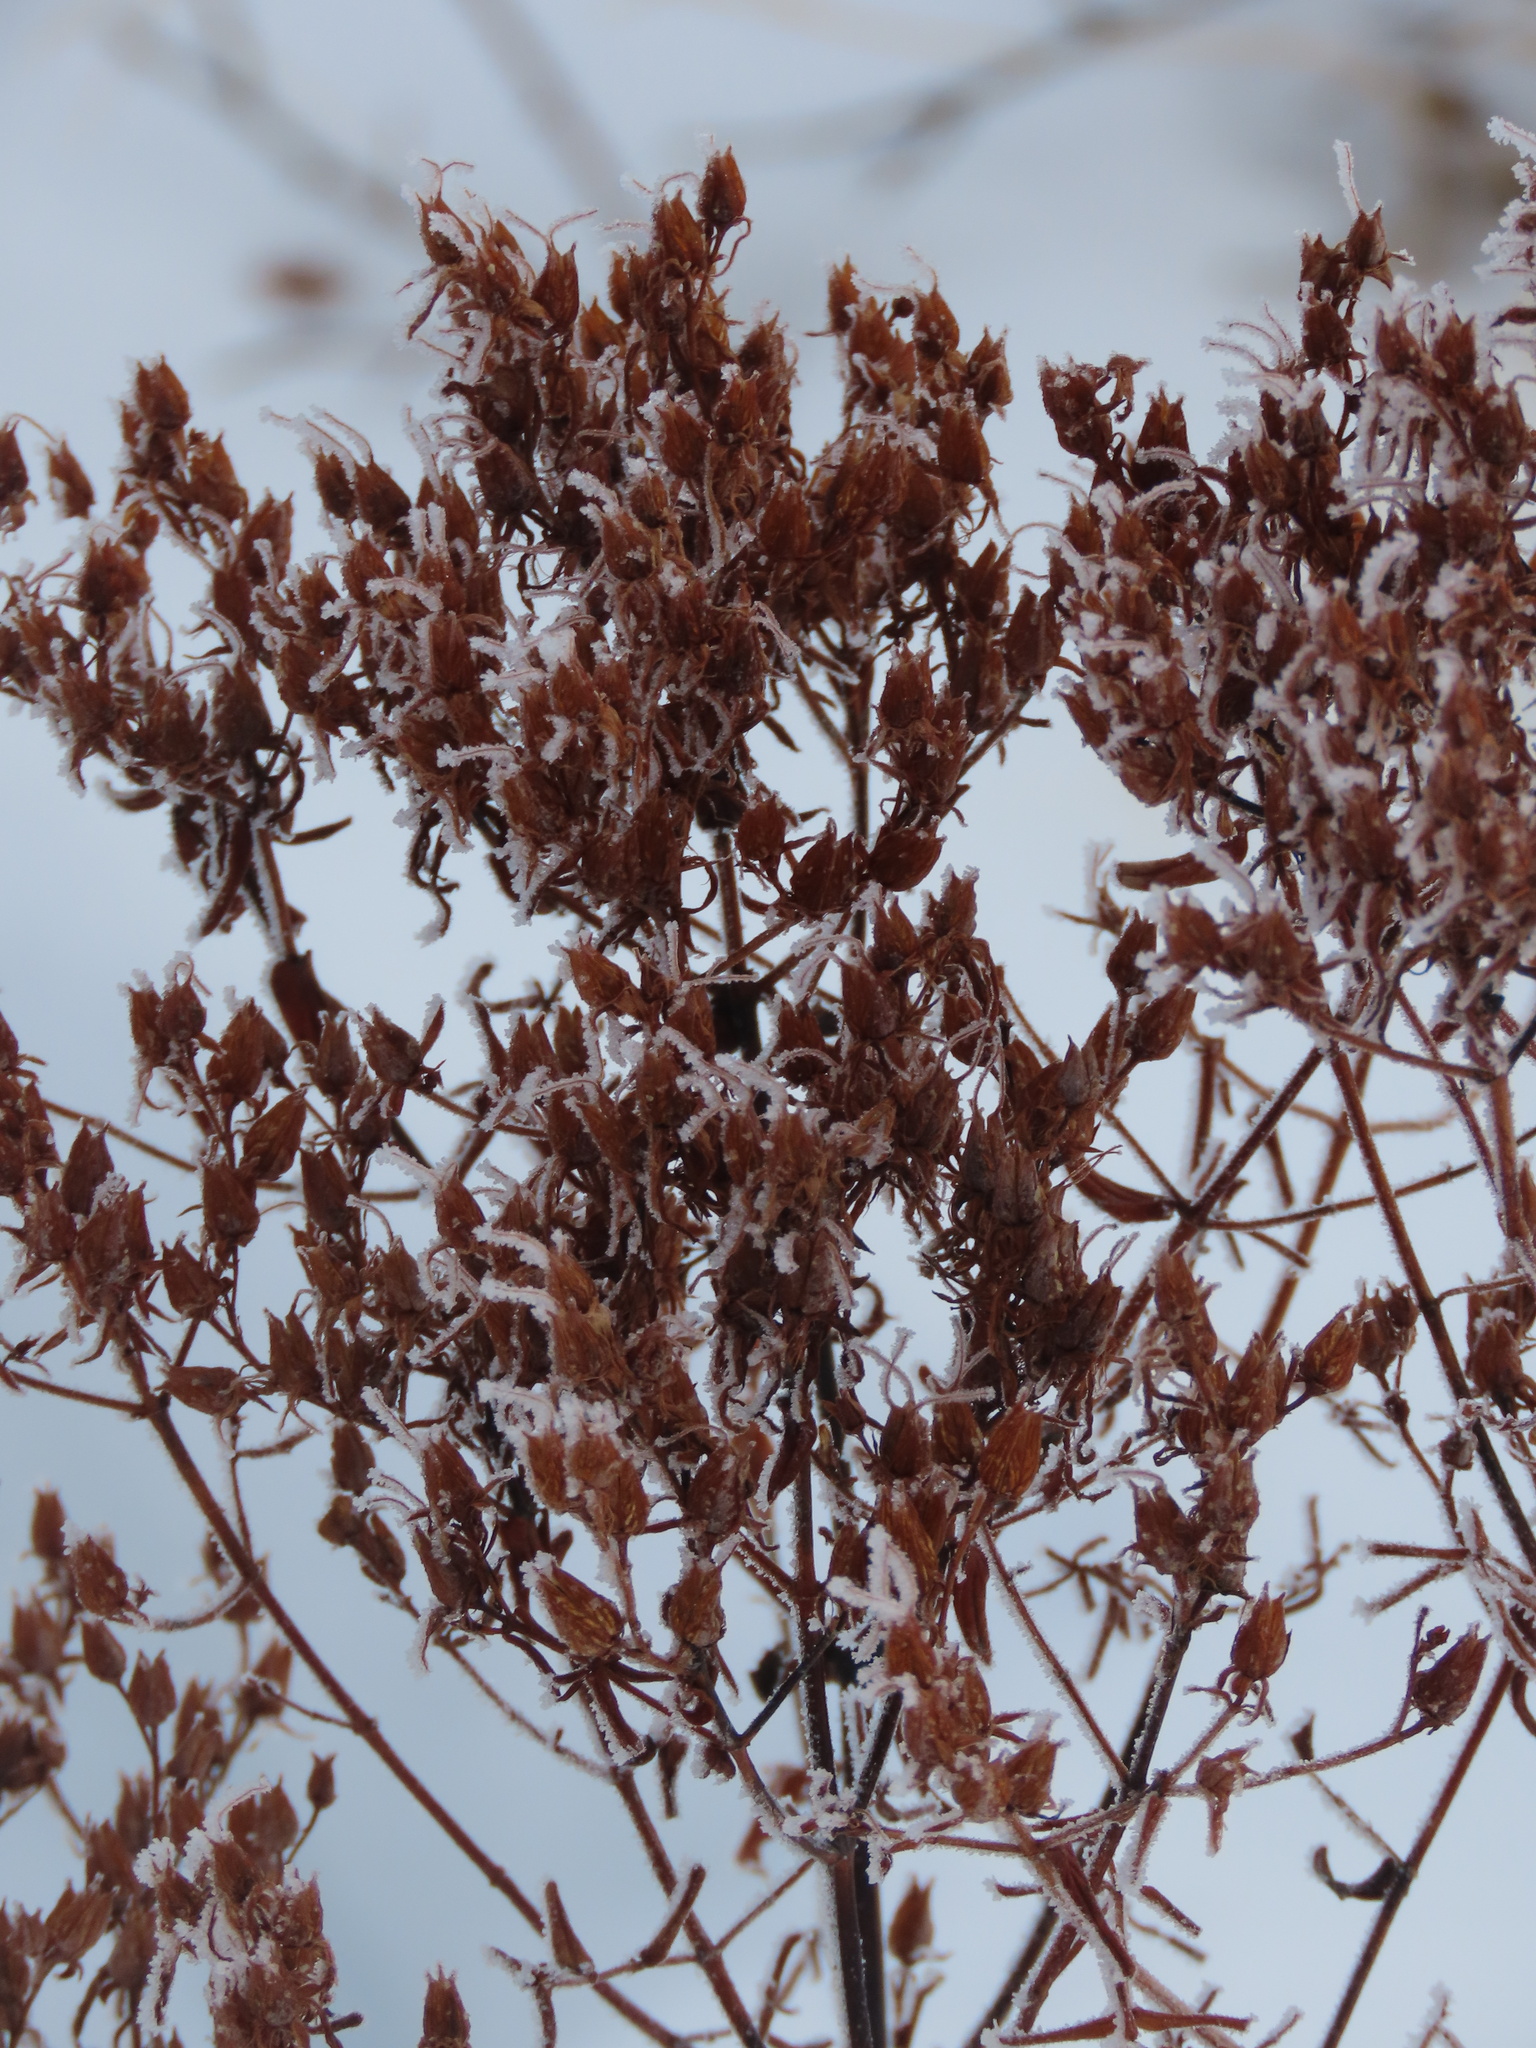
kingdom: Plantae
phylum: Tracheophyta
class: Magnoliopsida
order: Malpighiales
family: Hypericaceae
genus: Hypericum
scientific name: Hypericum perforatum
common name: Common st. johnswort
